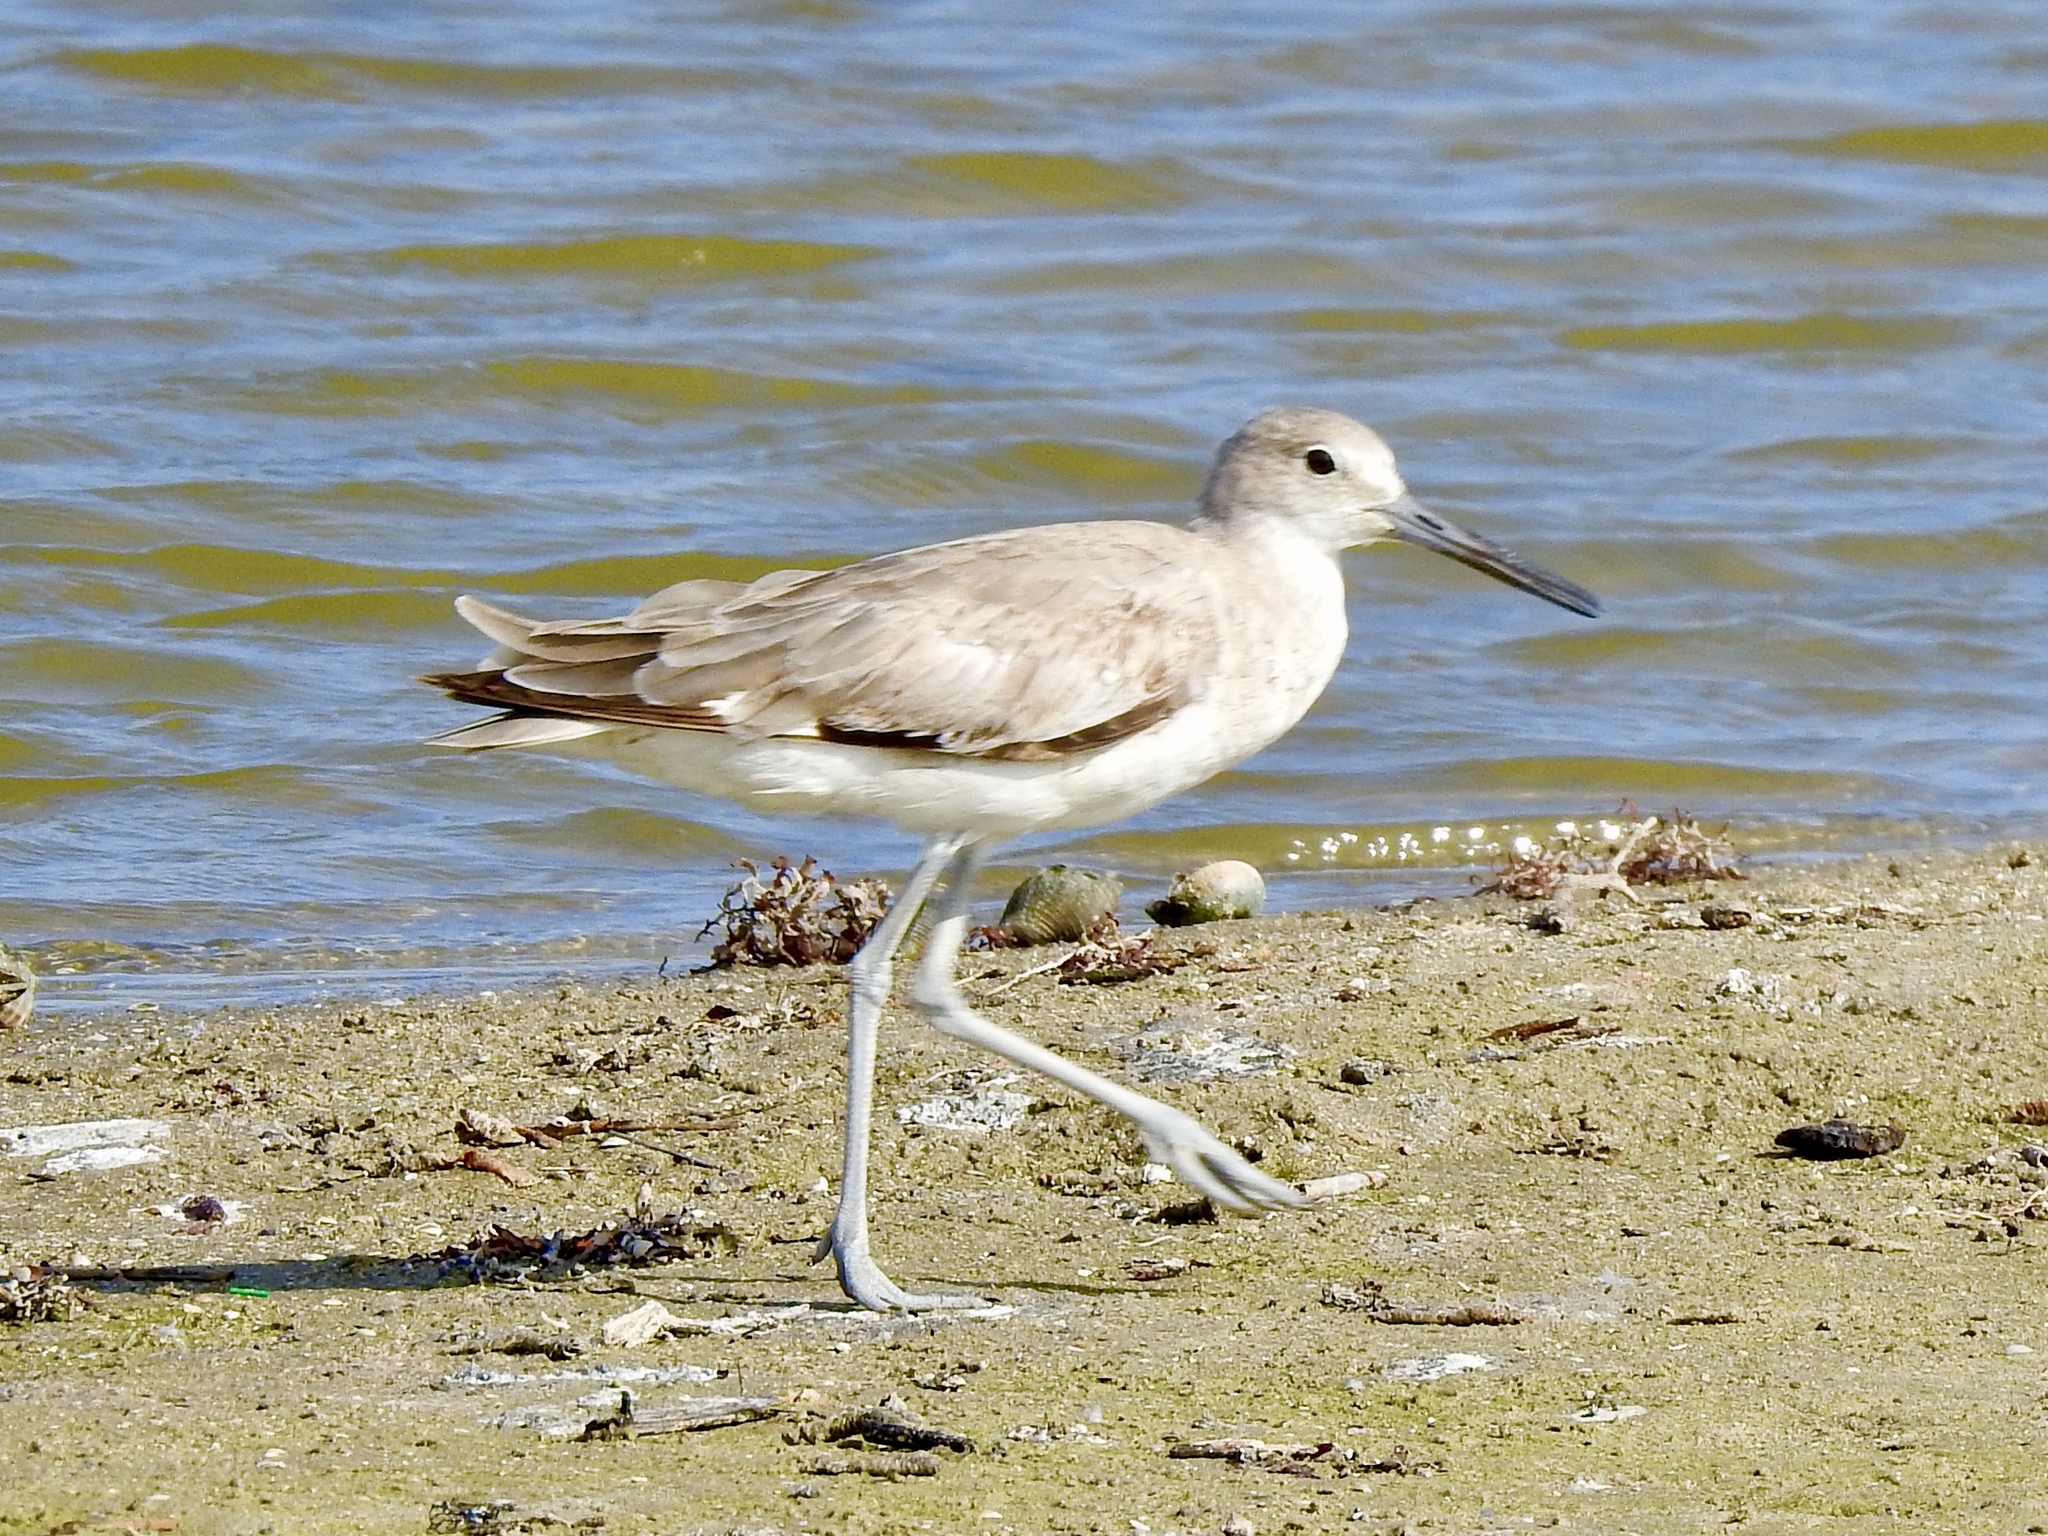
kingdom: Animalia
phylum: Chordata
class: Aves
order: Charadriiformes
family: Scolopacidae
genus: Tringa
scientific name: Tringa semipalmata
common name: Willet
